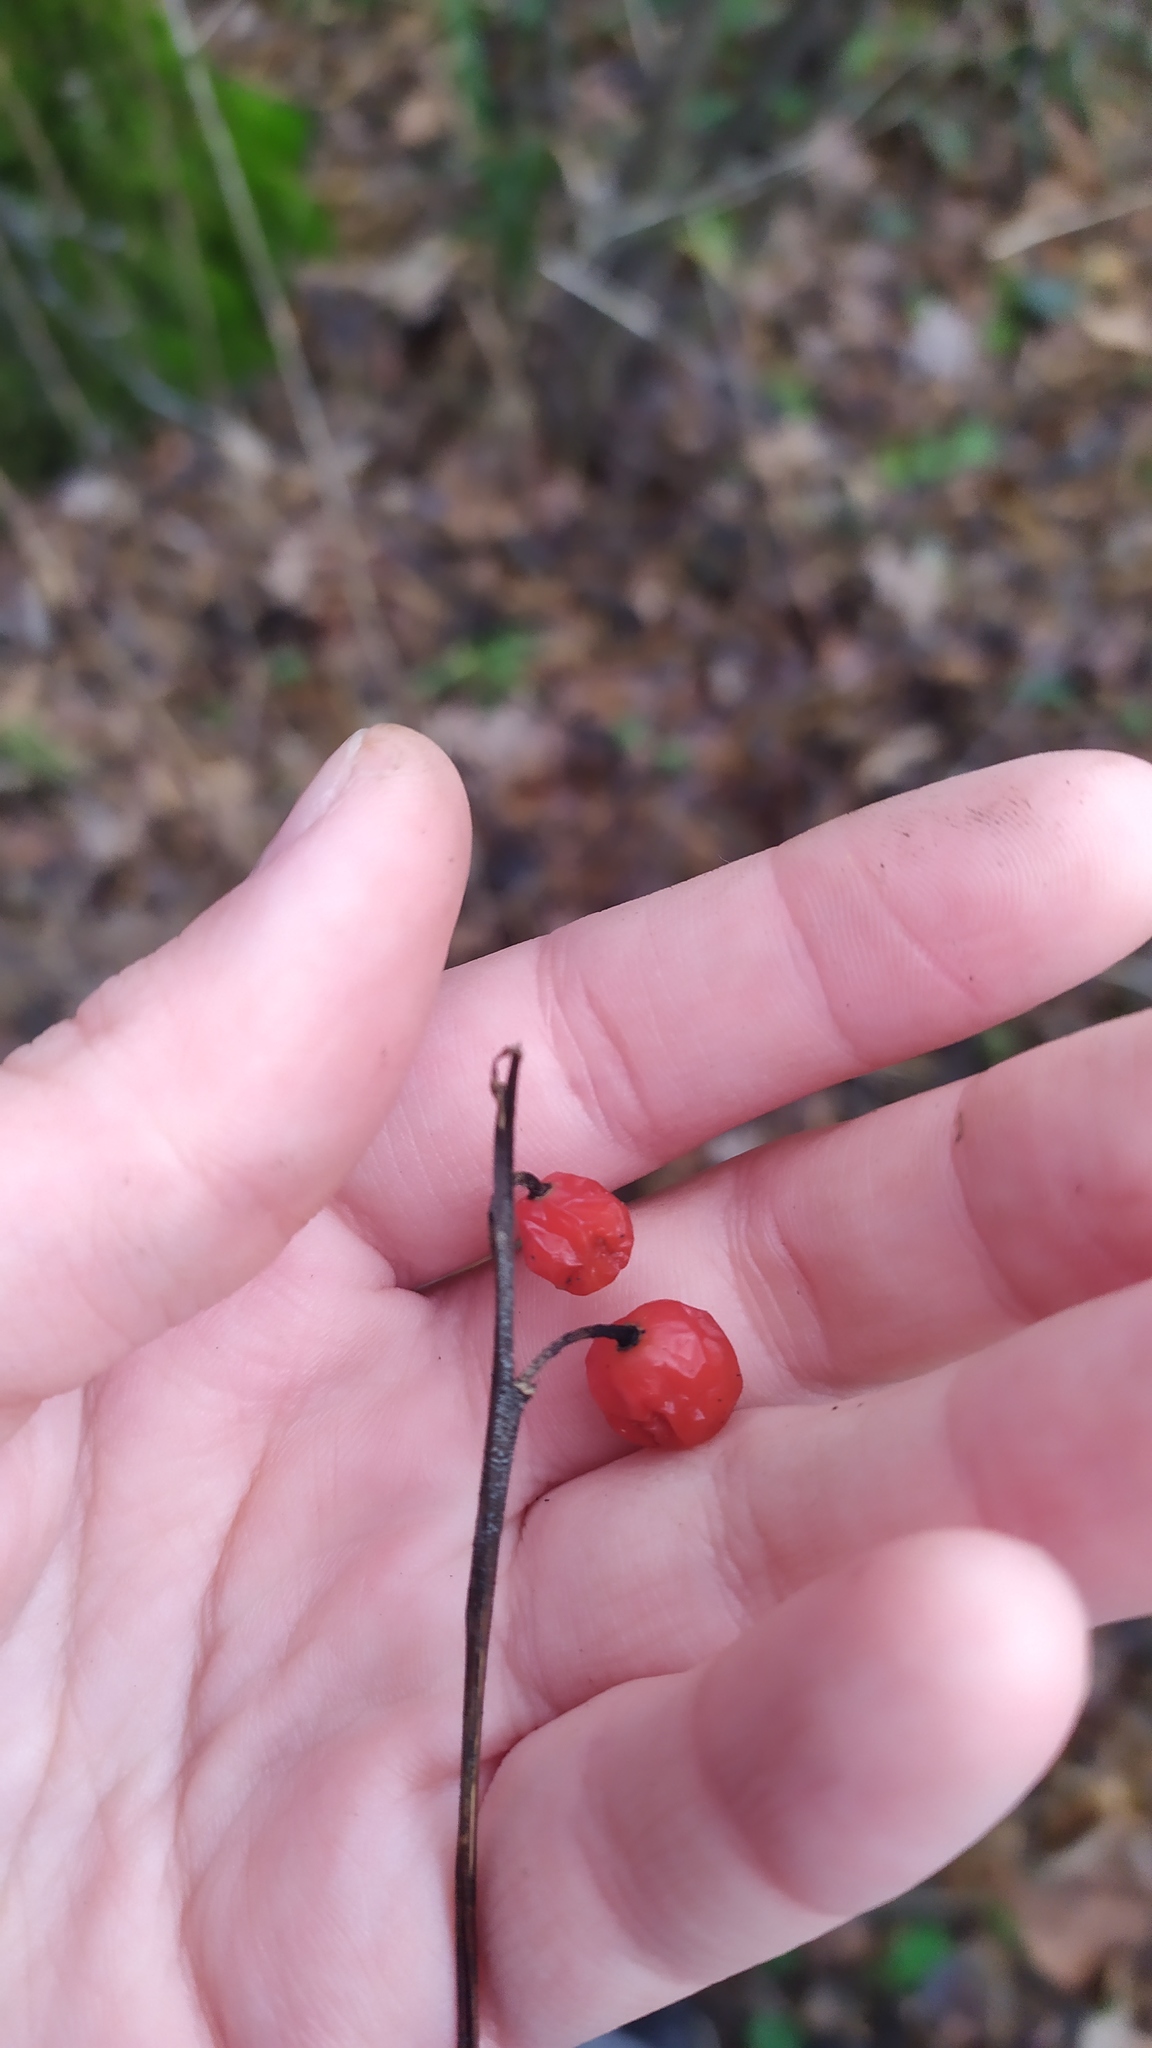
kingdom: Plantae
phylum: Tracheophyta
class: Liliopsida
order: Asparagales
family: Asparagaceae
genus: Convallaria
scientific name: Convallaria majalis
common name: Lily-of-the-valley
